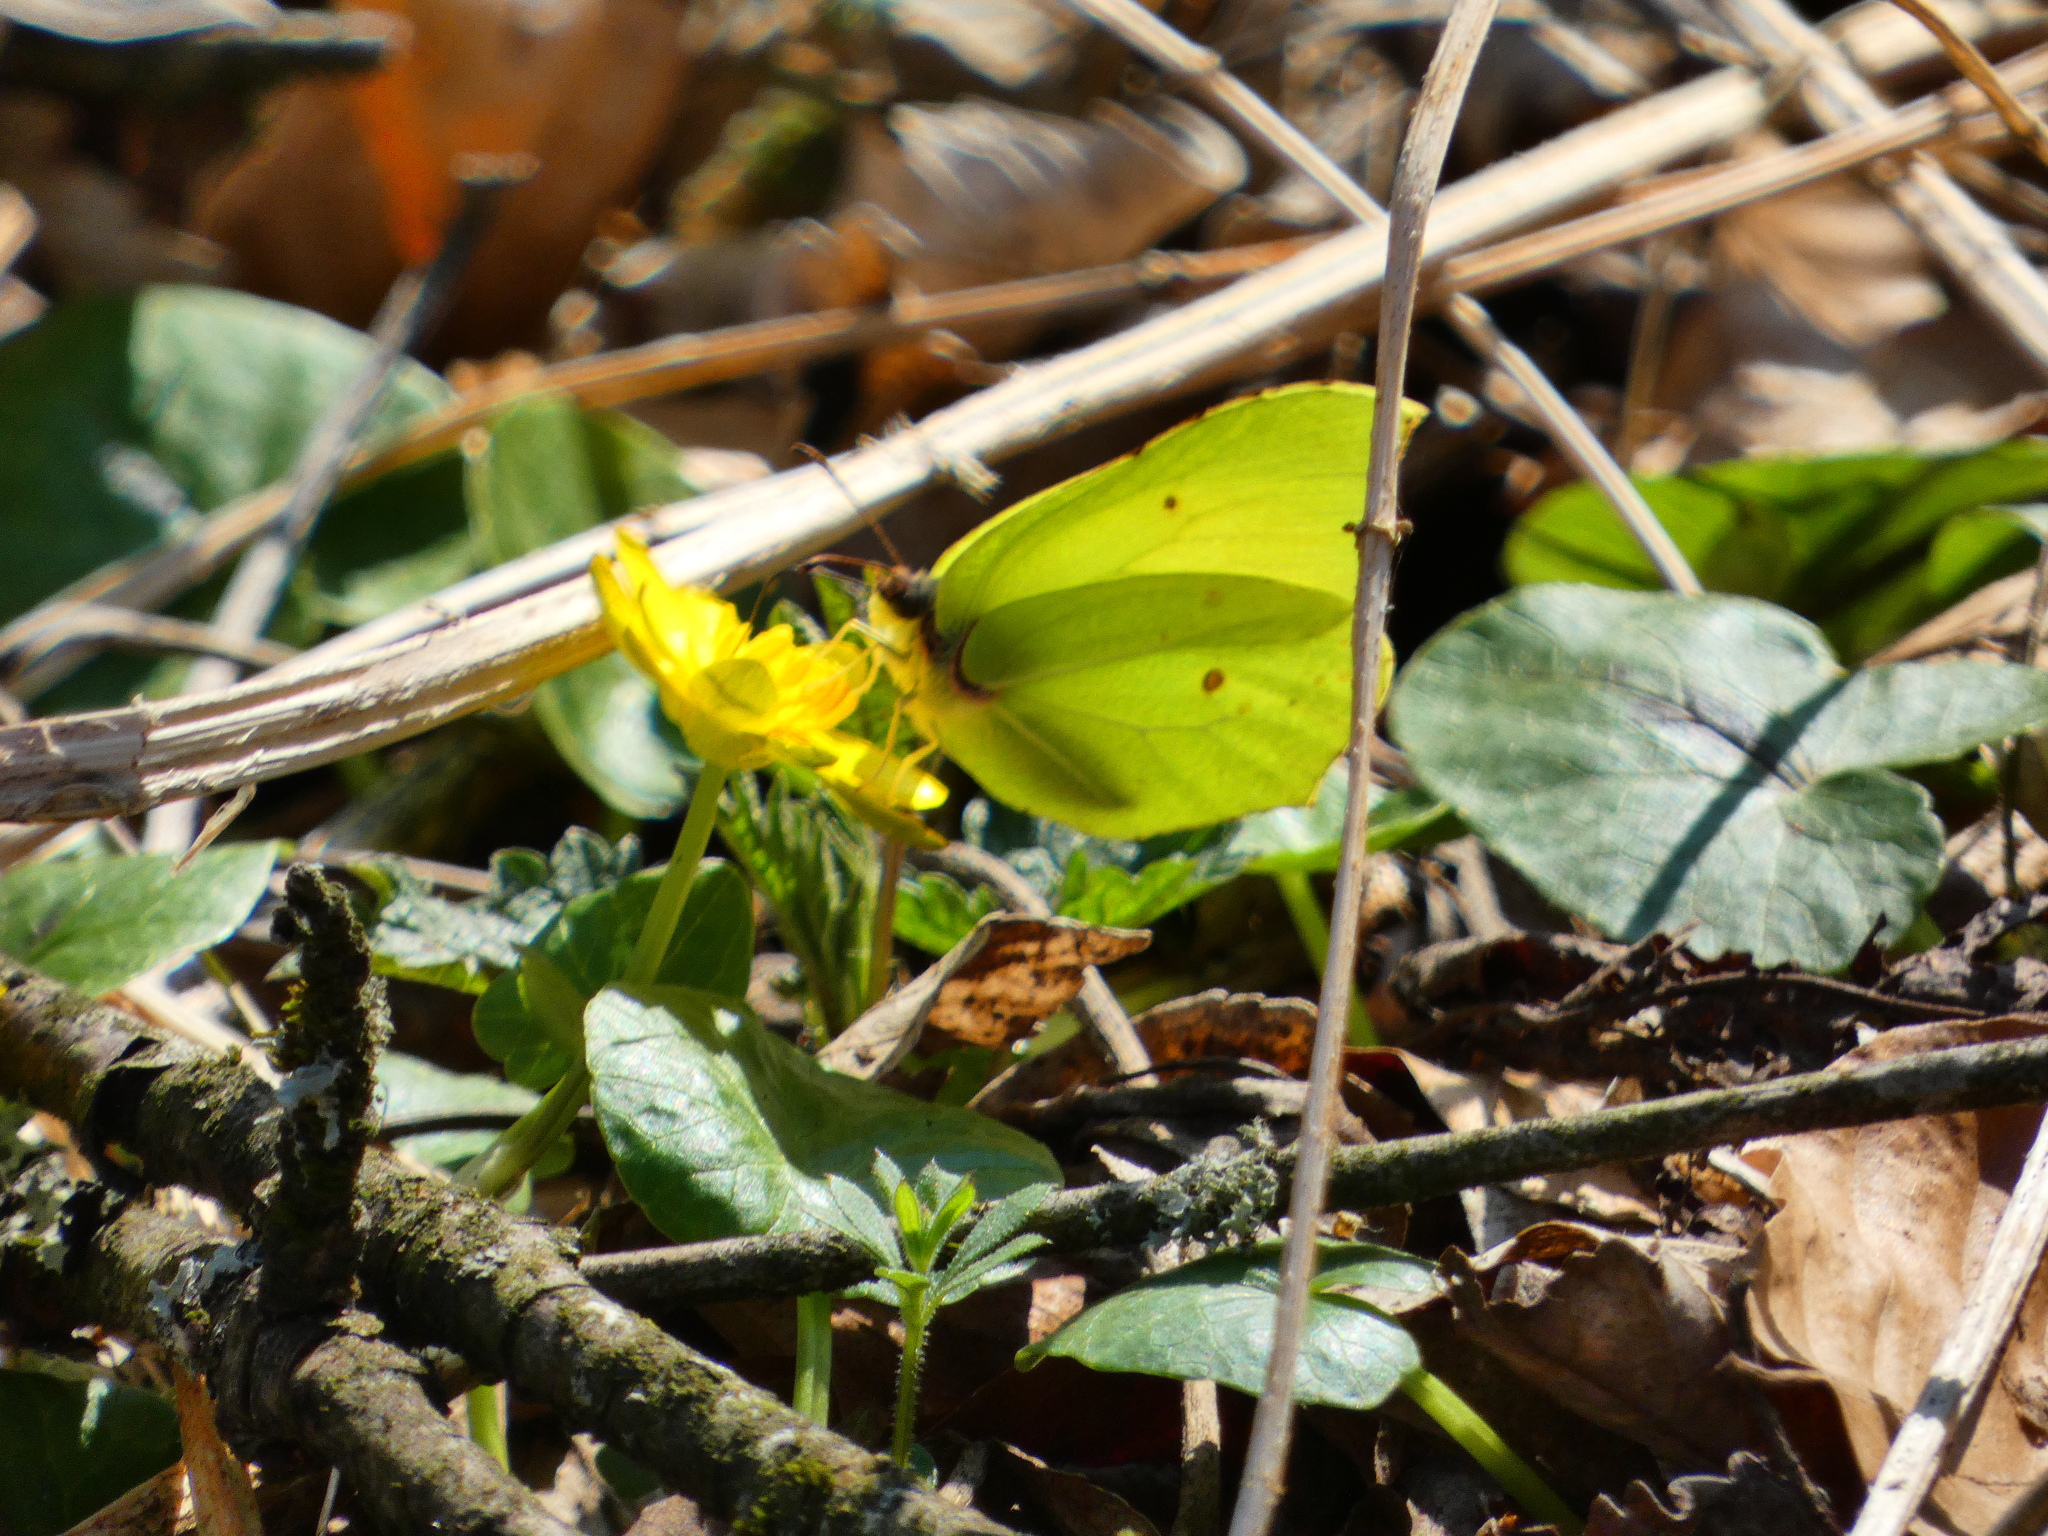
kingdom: Animalia
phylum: Arthropoda
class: Insecta
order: Lepidoptera
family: Pieridae
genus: Gonepteryx
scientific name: Gonepteryx rhamni
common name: Brimstone
